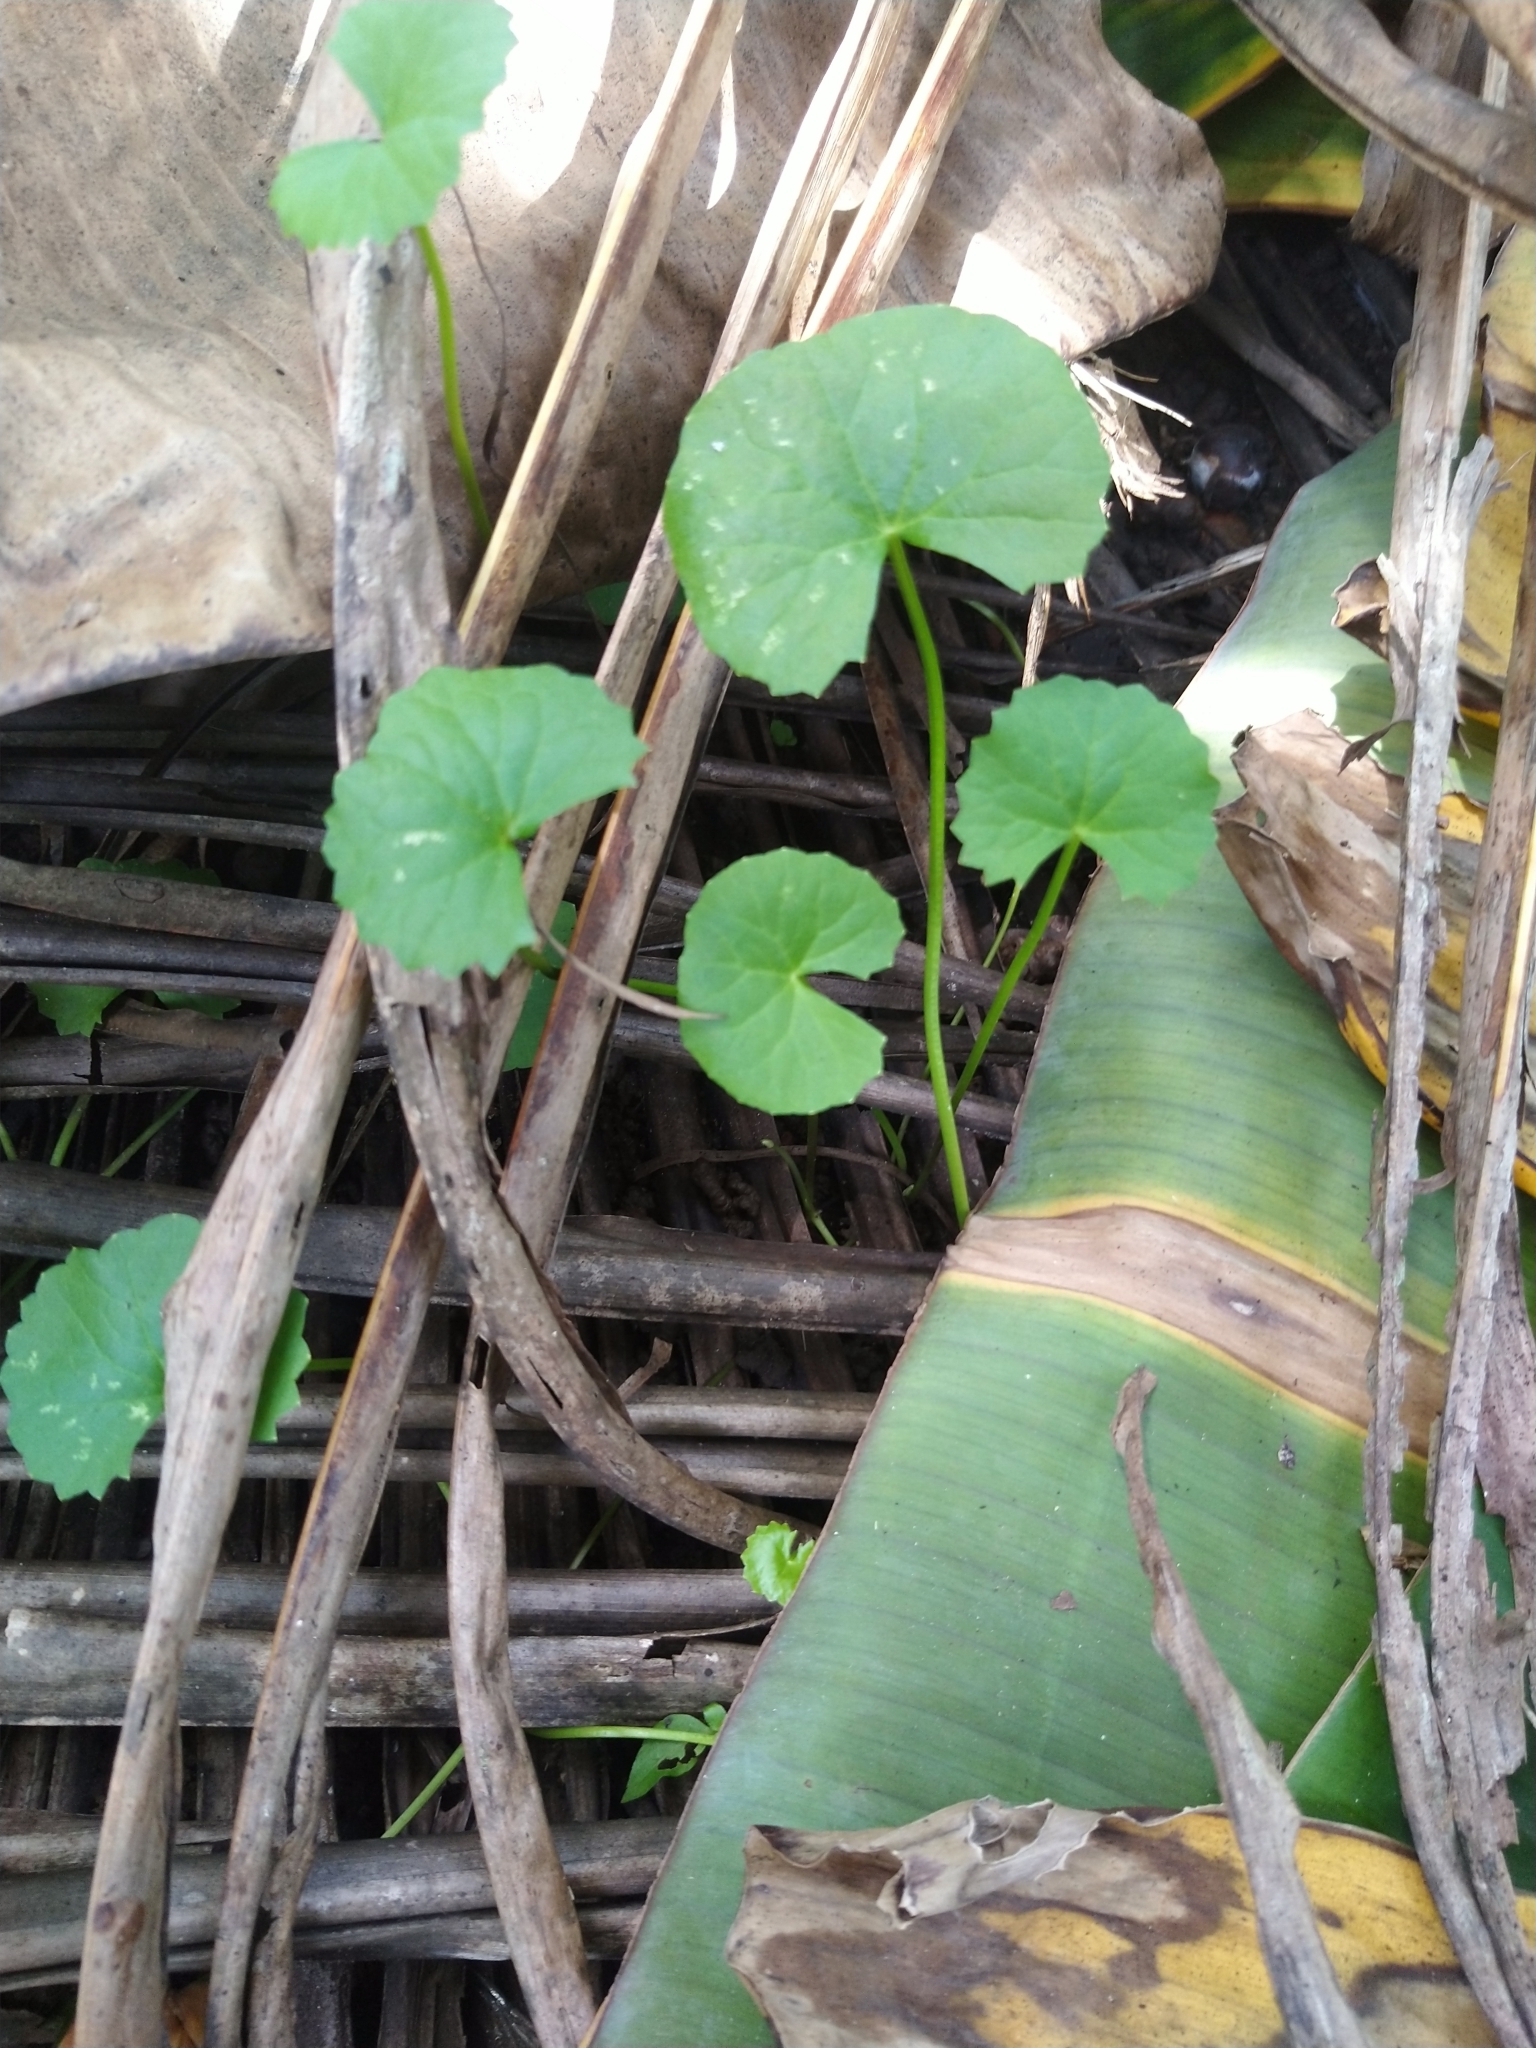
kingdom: Plantae
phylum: Tracheophyta
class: Magnoliopsida
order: Apiales
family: Apiaceae
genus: Centella
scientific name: Centella asiatica
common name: Spadeleaf
